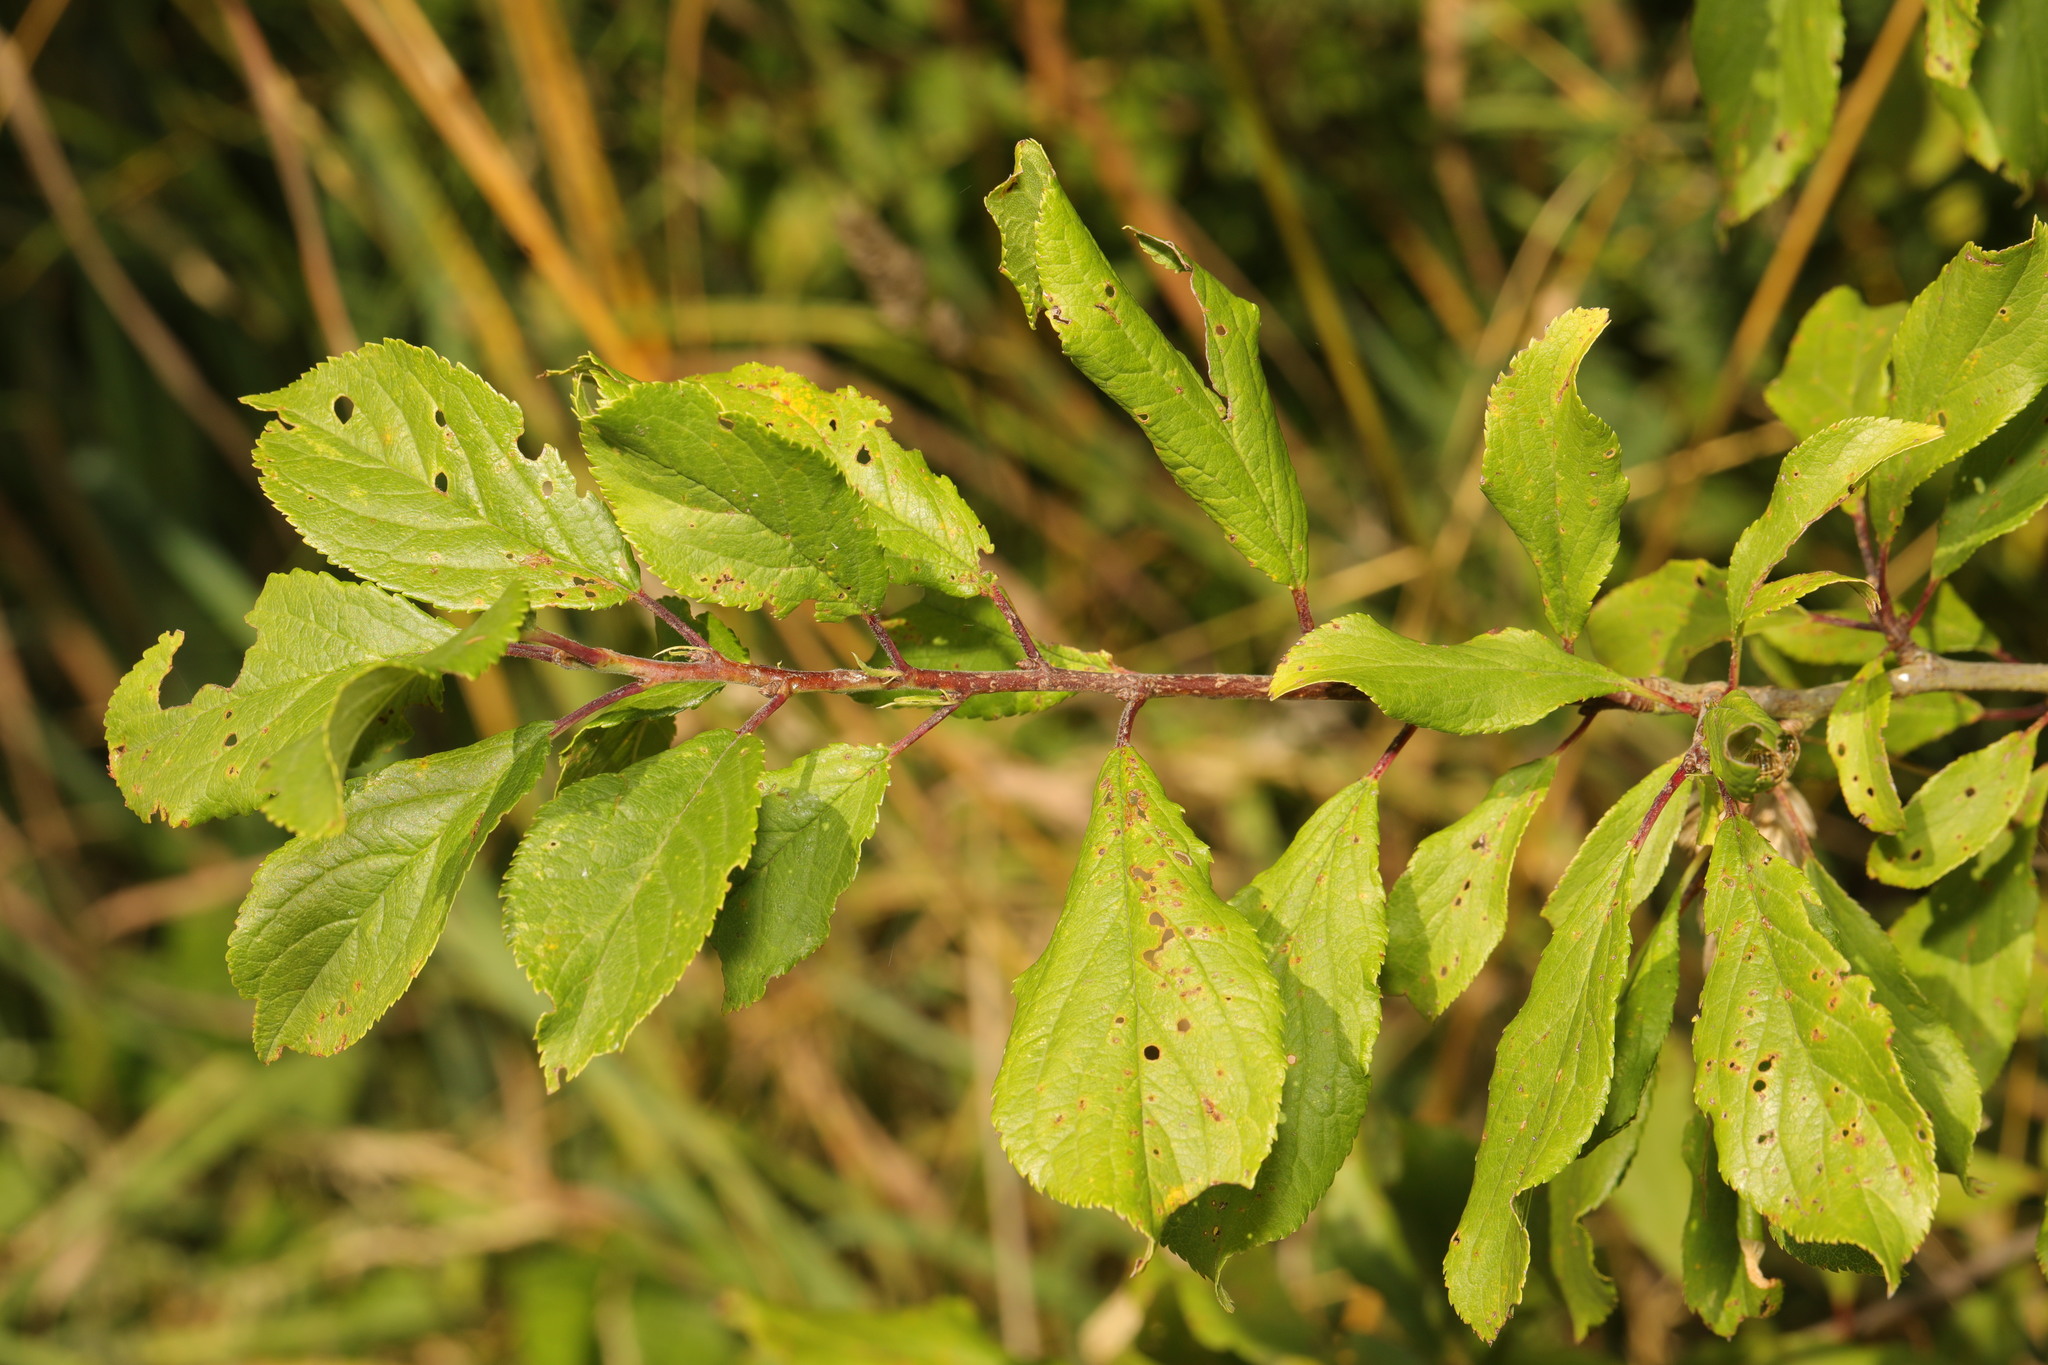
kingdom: Plantae
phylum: Tracheophyta
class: Magnoliopsida
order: Rosales
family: Rosaceae
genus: Prunus
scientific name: Prunus spinosa
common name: Blackthorn
